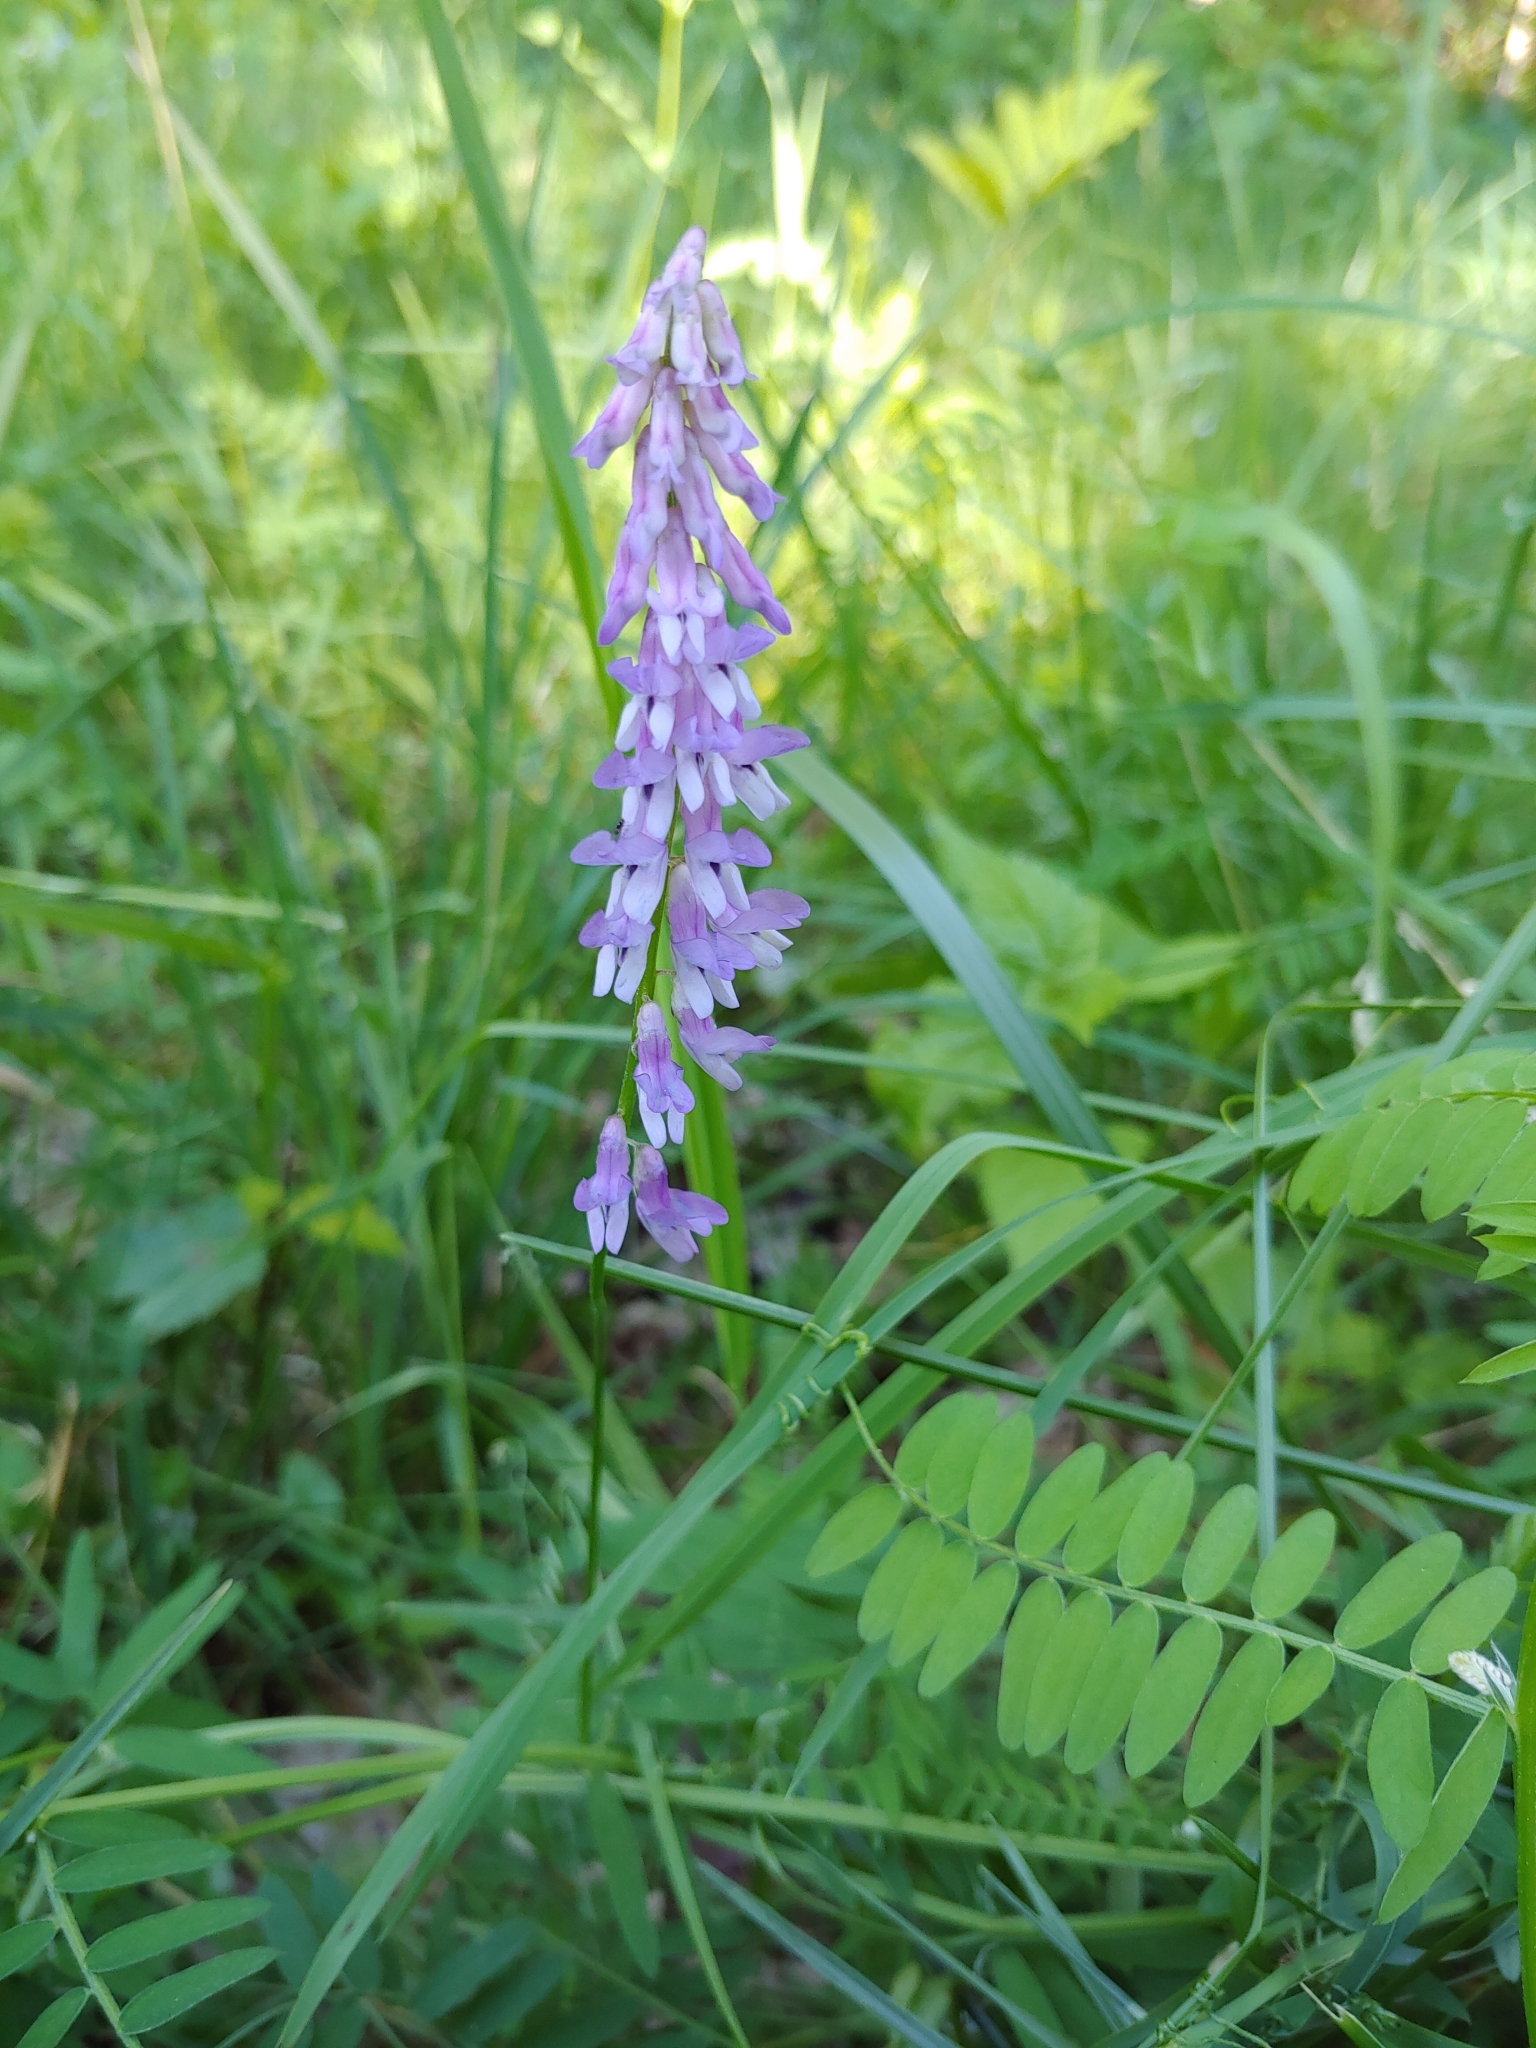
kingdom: Plantae
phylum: Tracheophyta
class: Magnoliopsida
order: Fabales
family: Fabaceae
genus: Vicia
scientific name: Vicia cracca
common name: Bird vetch
